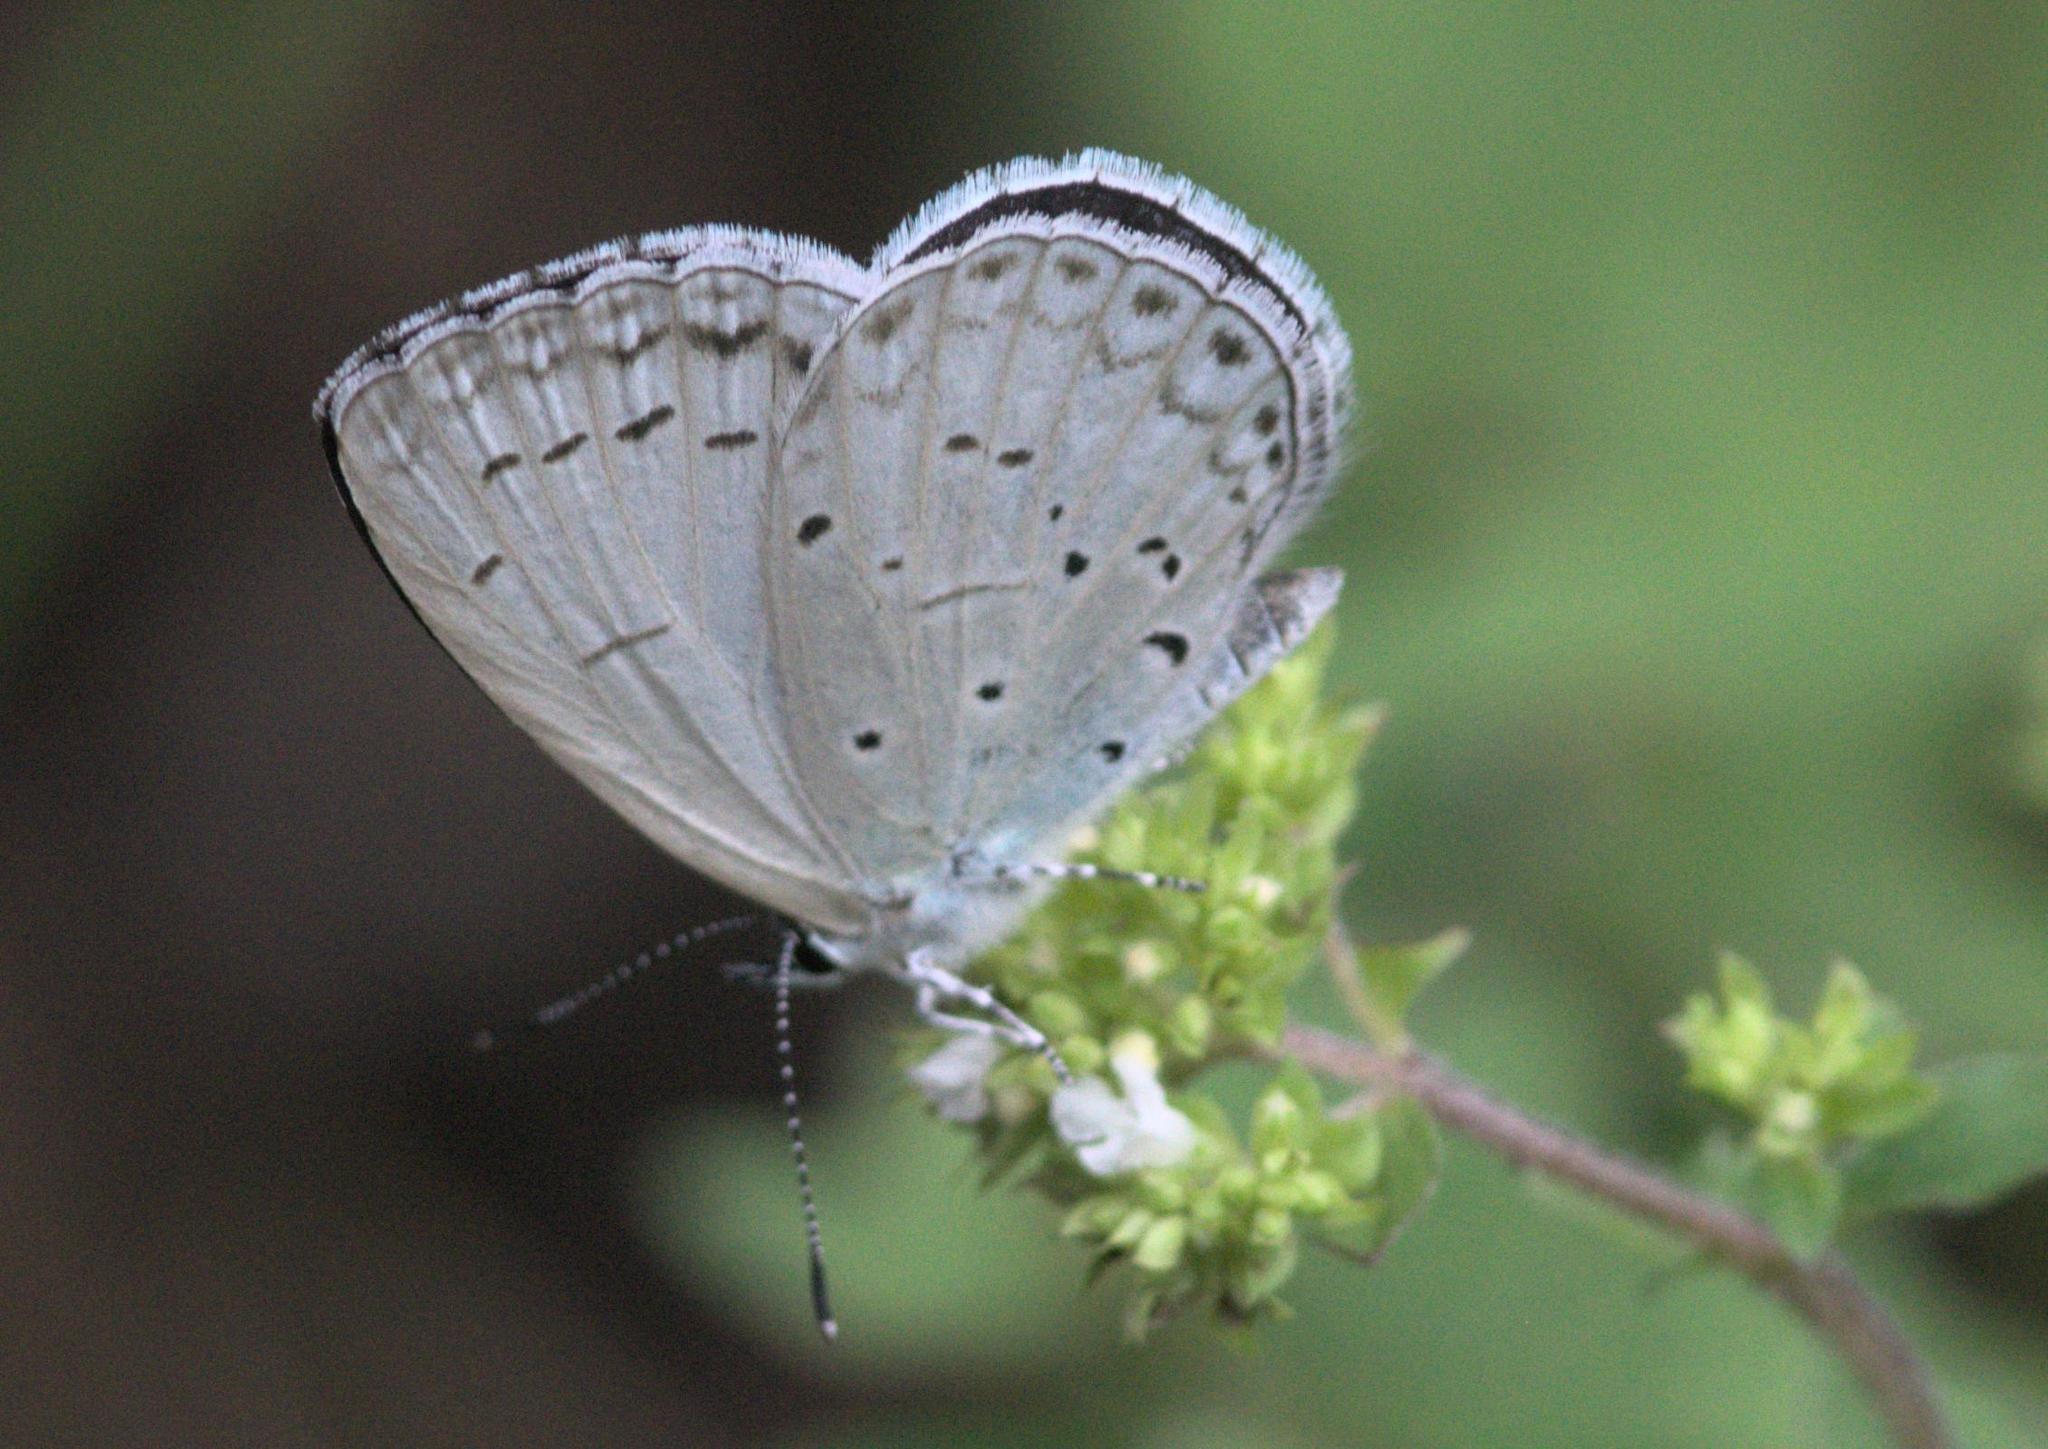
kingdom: Animalia
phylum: Arthropoda
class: Insecta
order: Lepidoptera
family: Lycaenidae
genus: Celastrina
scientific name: Celastrina gigas
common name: Silvery hedge blue
